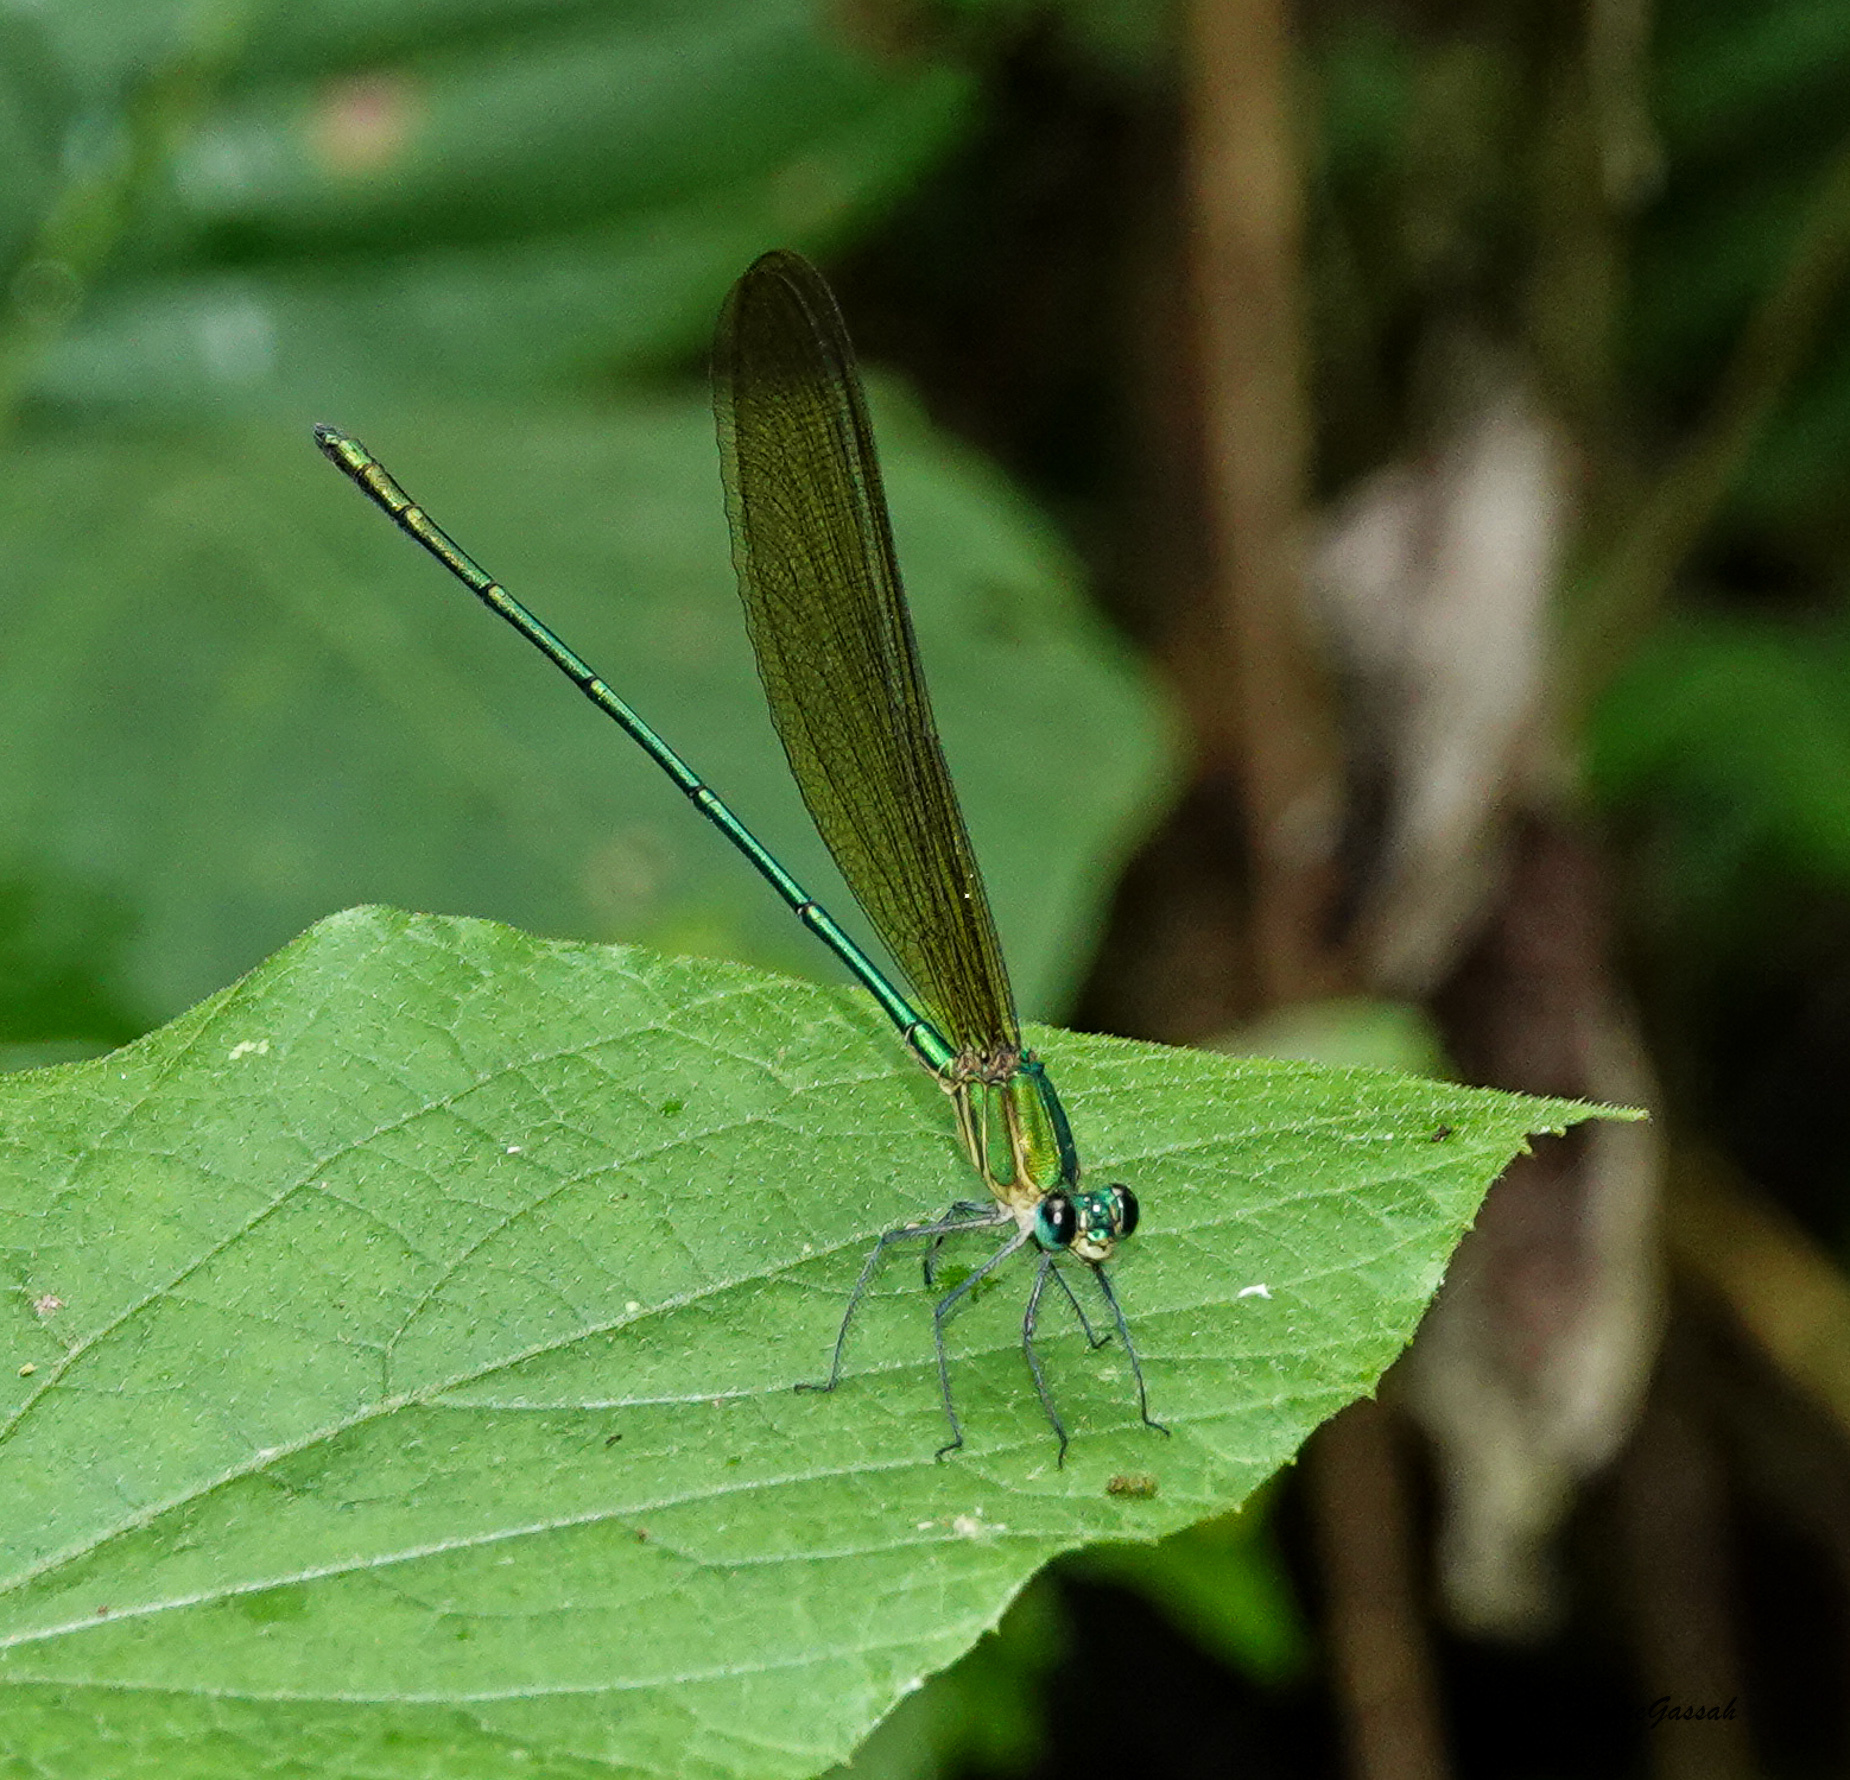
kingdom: Animalia
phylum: Arthropoda
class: Insecta
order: Odonata
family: Calopterygidae
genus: Vestalis
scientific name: Vestalis gracilis
